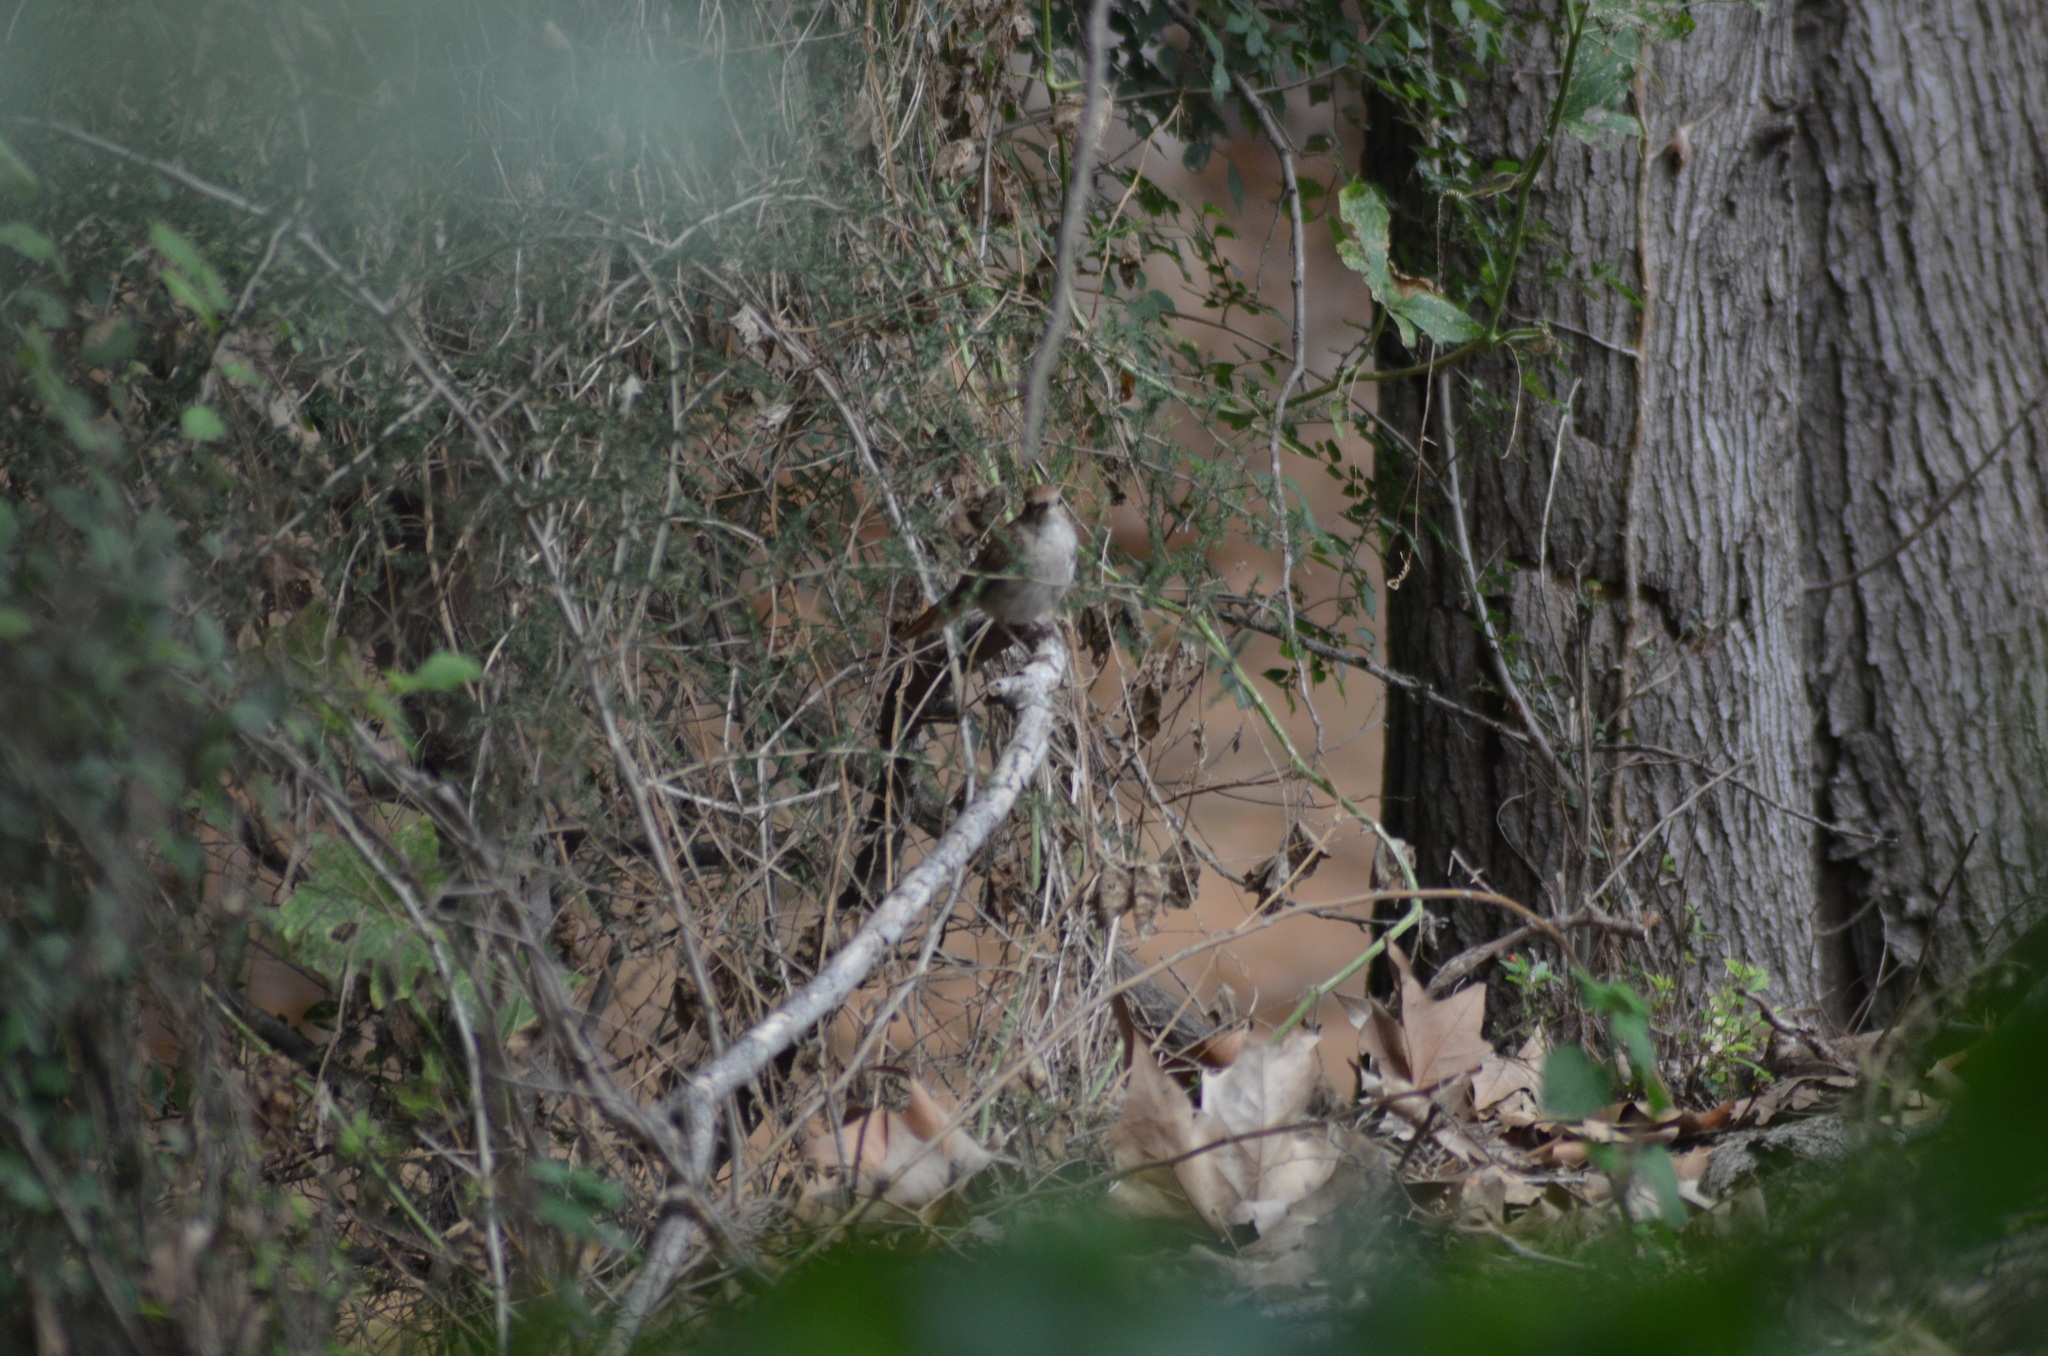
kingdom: Animalia
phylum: Chordata
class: Aves
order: Passeriformes
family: Muscicapidae
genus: Luscinia
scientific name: Luscinia megarhynchos
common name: Common nightingale
